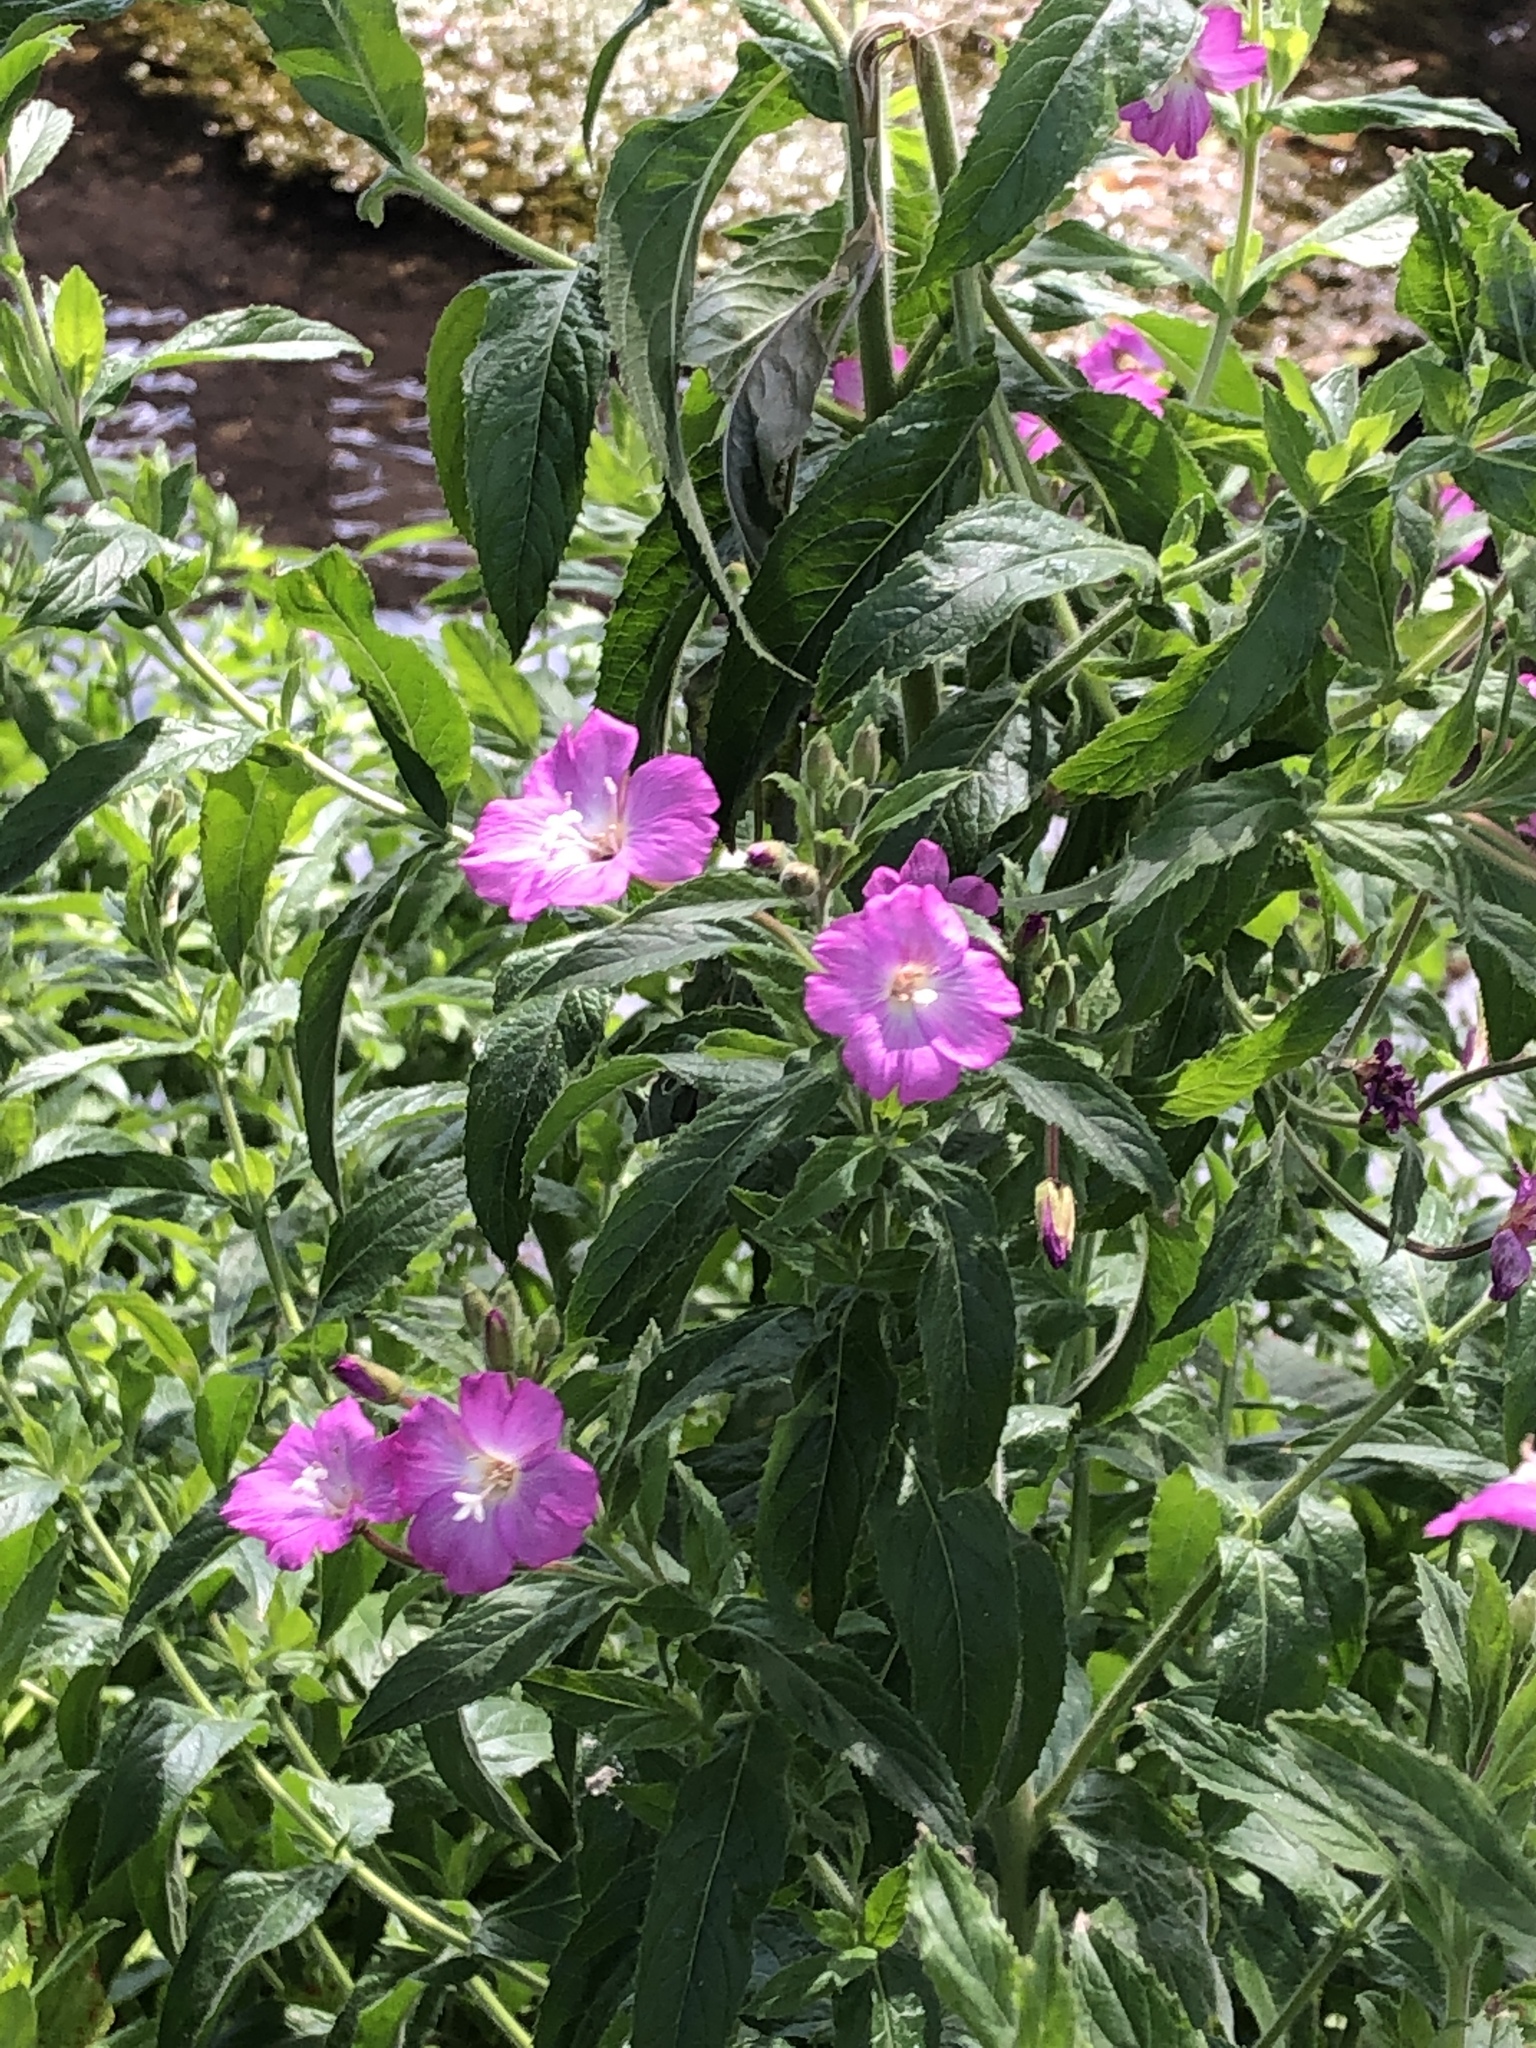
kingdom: Plantae
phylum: Tracheophyta
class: Magnoliopsida
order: Myrtales
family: Onagraceae
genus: Epilobium
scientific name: Epilobium hirsutum
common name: Great willowherb
